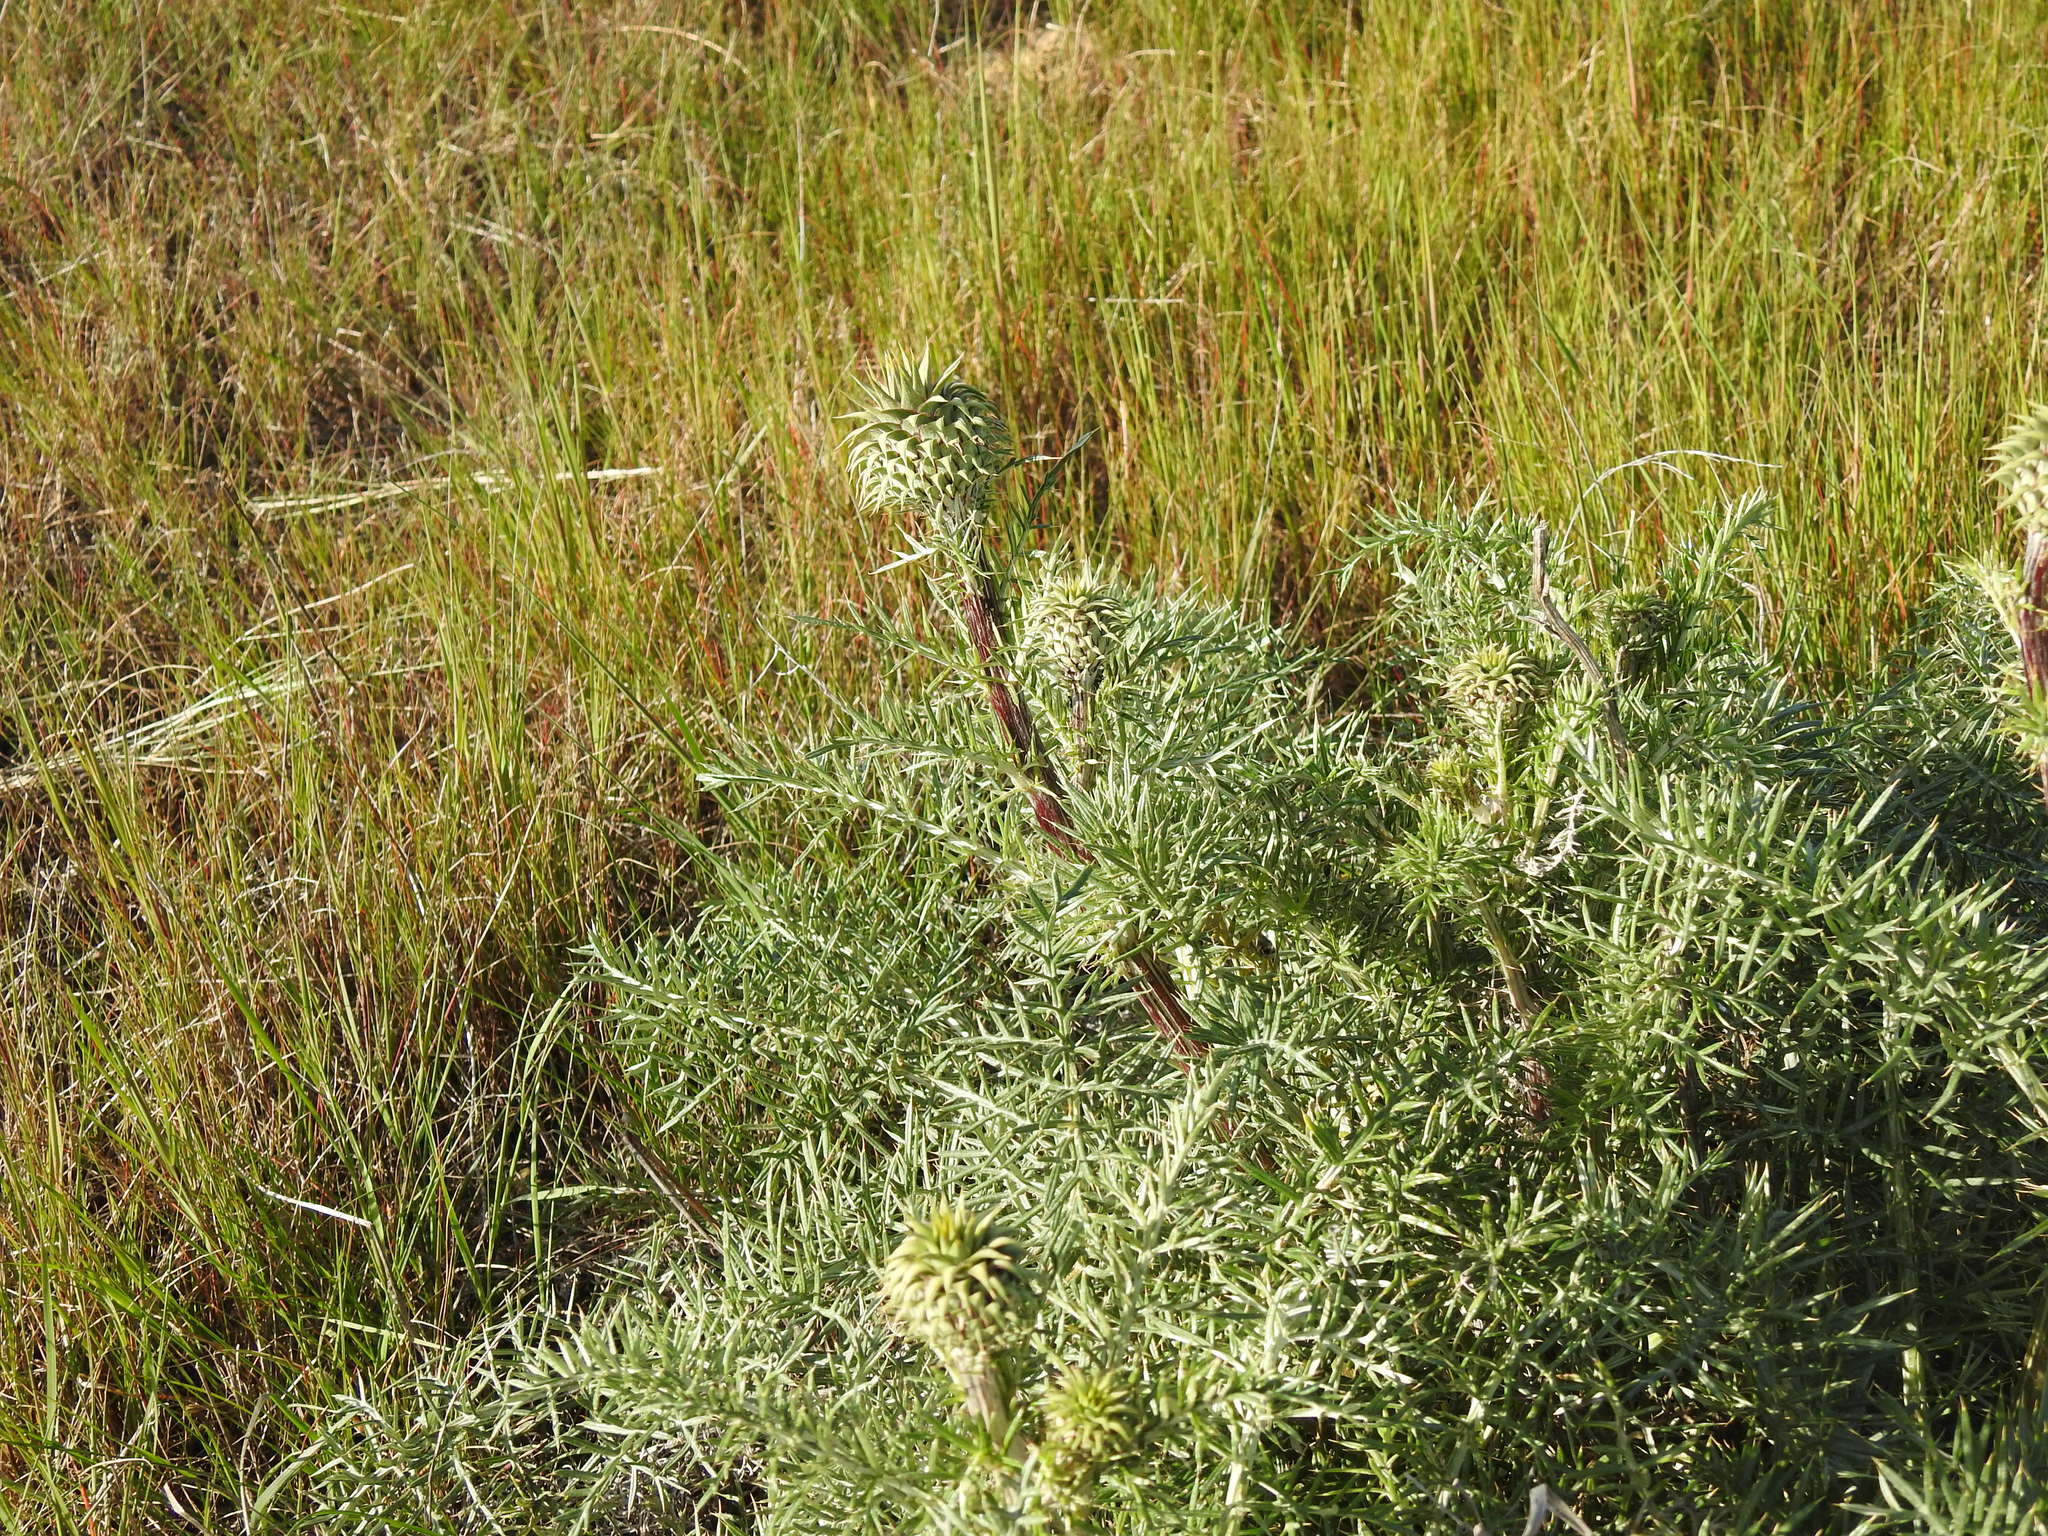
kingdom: Plantae
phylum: Tracheophyta
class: Magnoliopsida
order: Asterales
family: Asteraceae
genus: Cynara
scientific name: Cynara humilis
